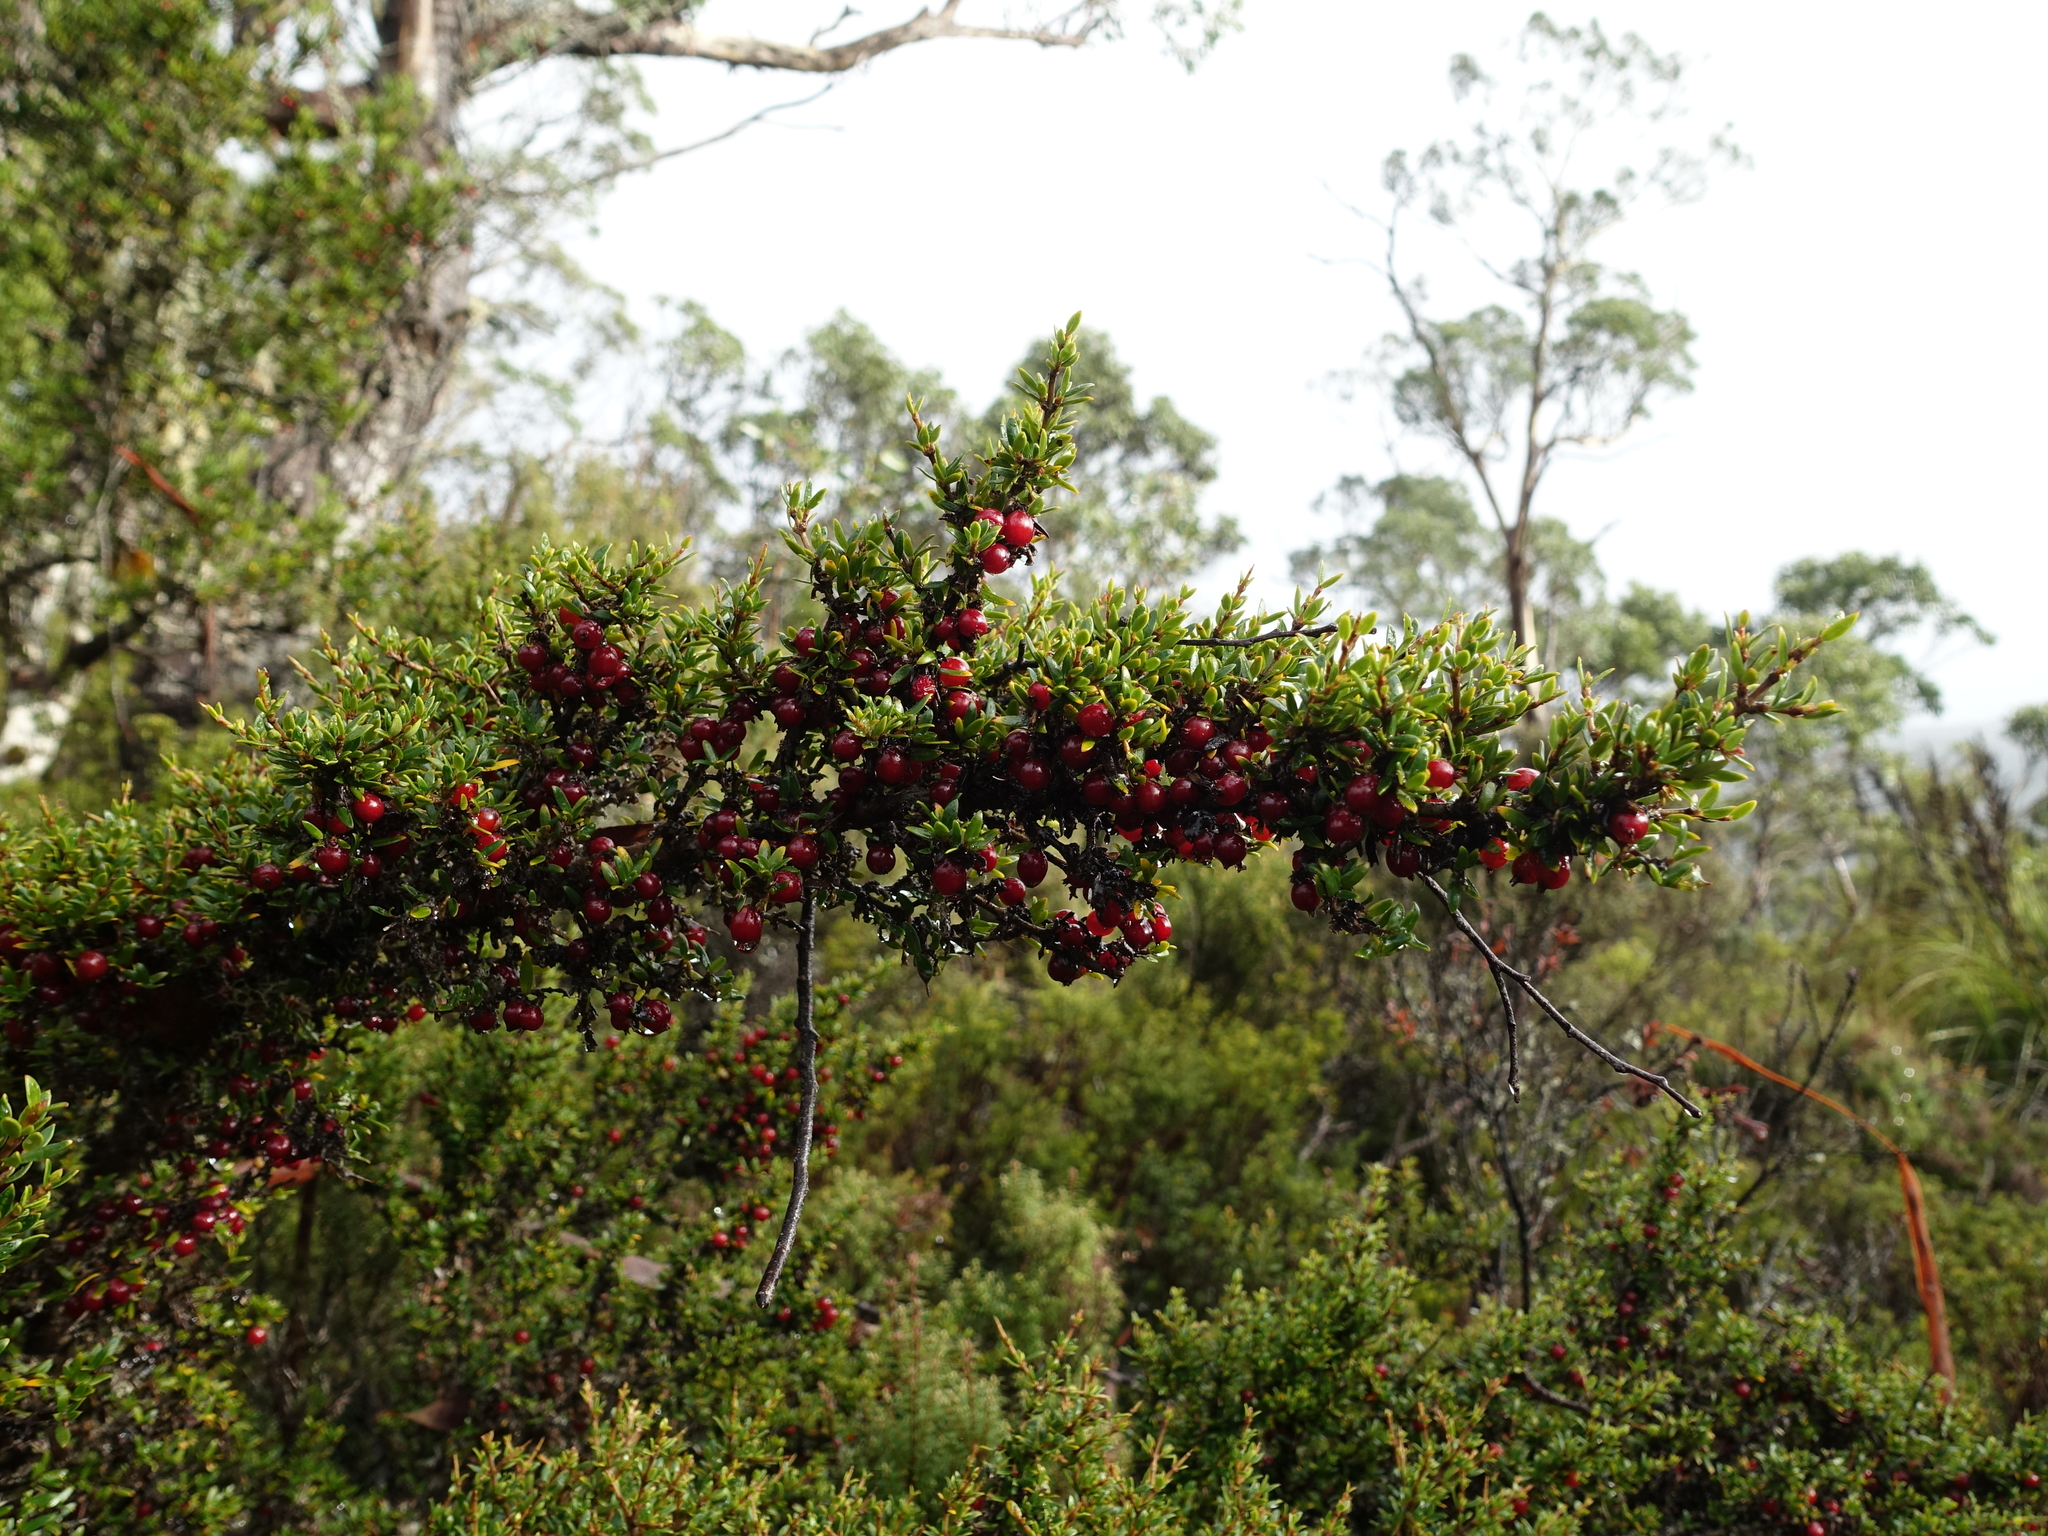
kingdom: Plantae
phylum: Tracheophyta
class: Magnoliopsida
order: Gentianales
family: Rubiaceae
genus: Coprosma
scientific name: Coprosma nitida
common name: Shining coprosma
